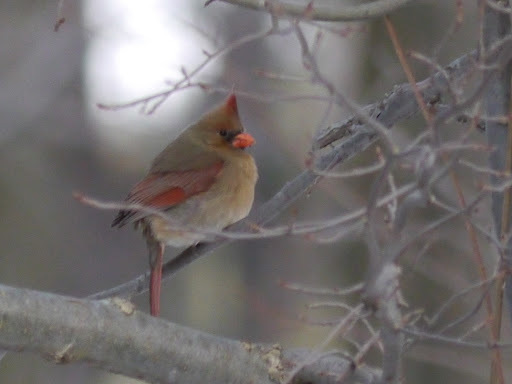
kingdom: Animalia
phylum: Chordata
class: Aves
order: Passeriformes
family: Cardinalidae
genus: Cardinalis
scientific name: Cardinalis cardinalis
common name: Northern cardinal
